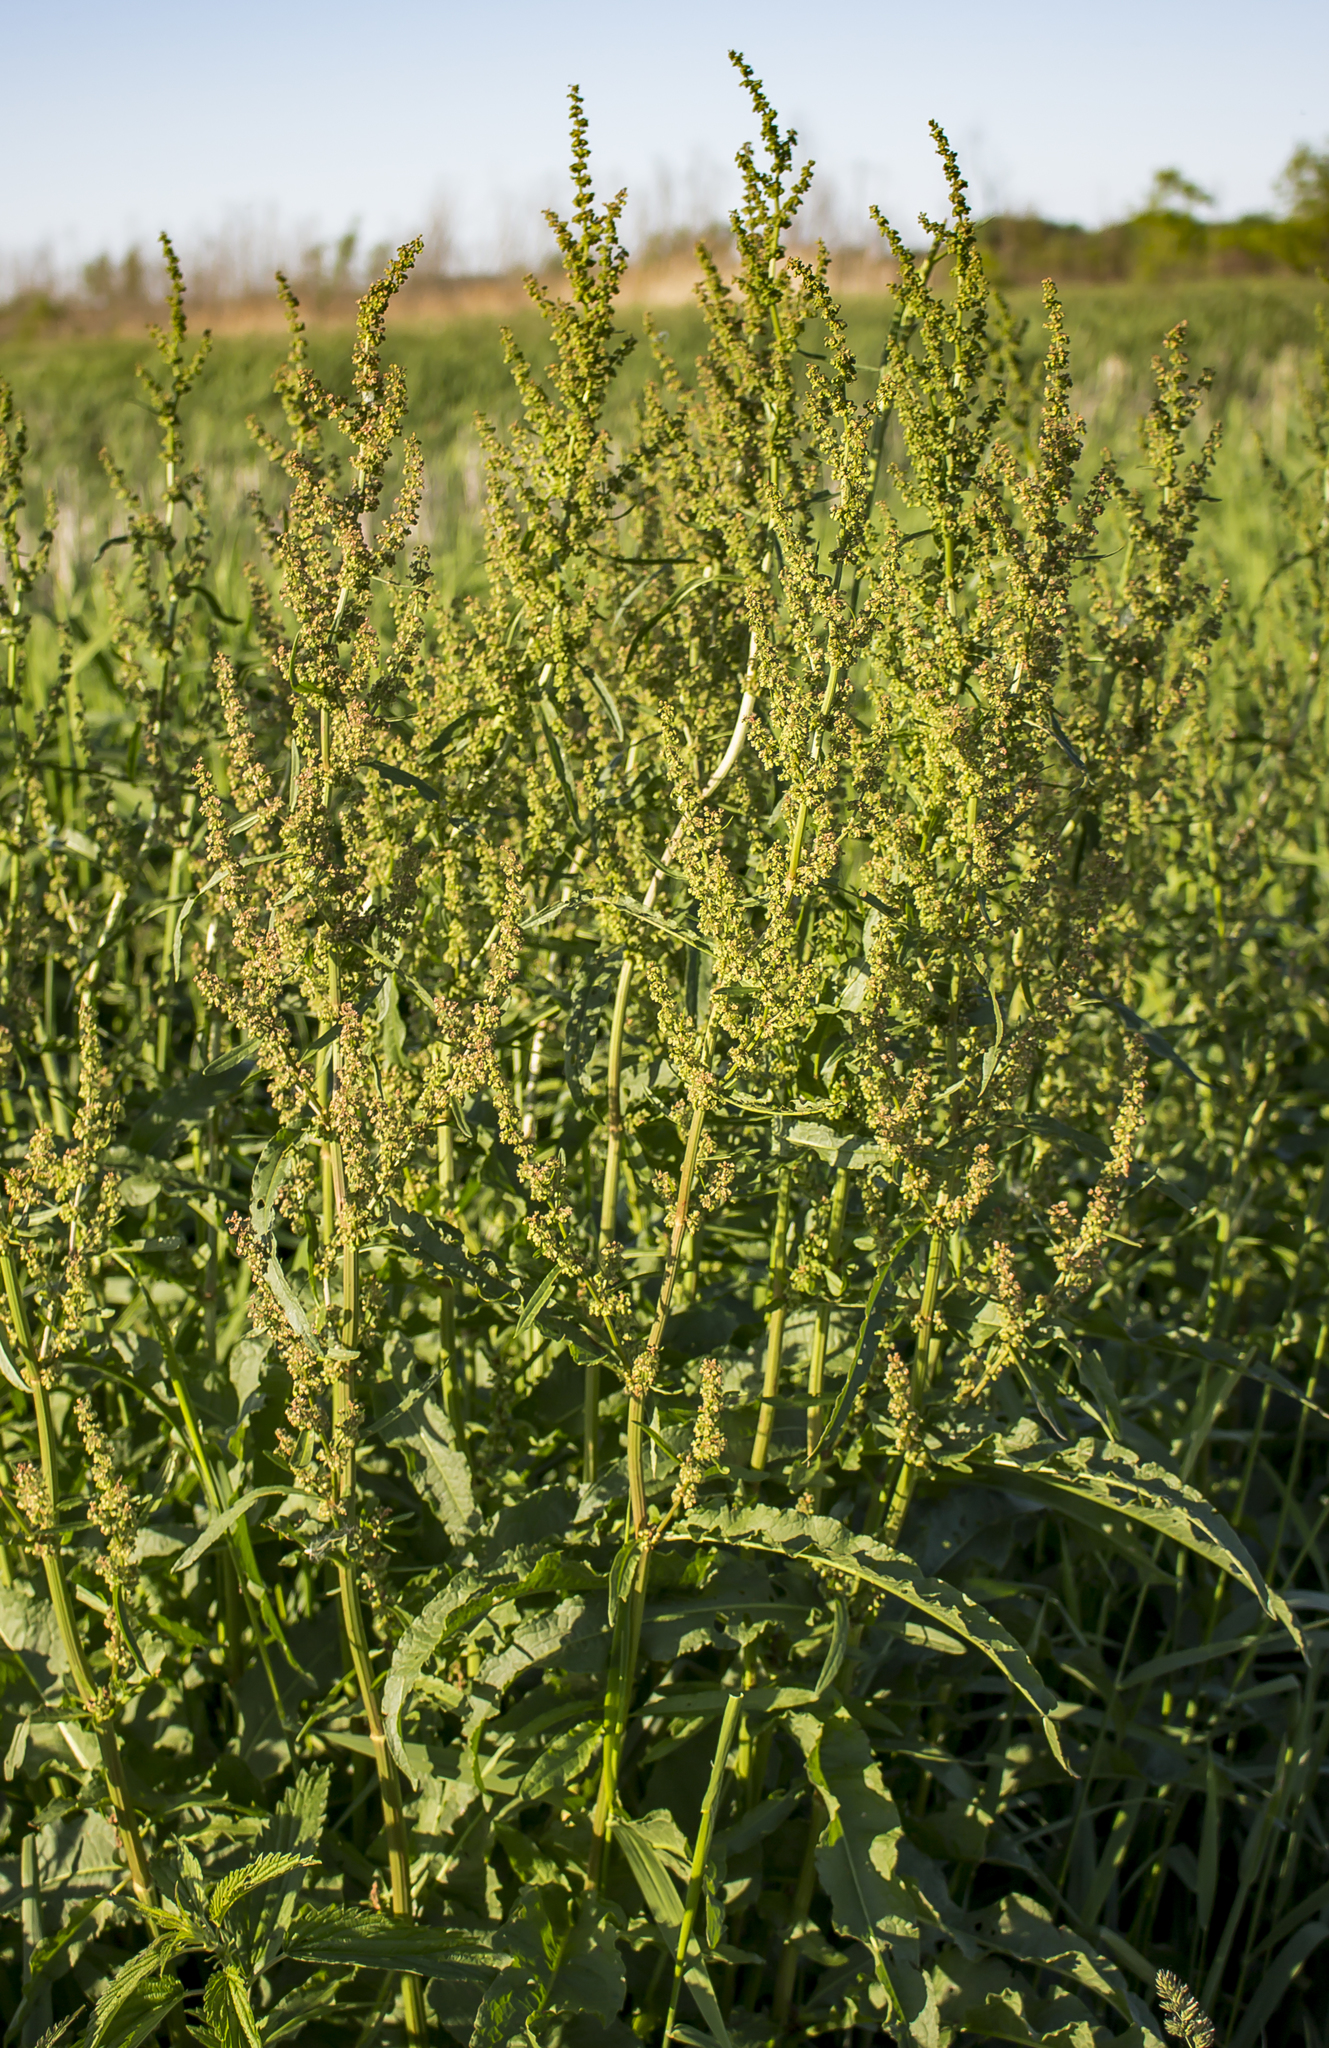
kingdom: Plantae
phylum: Tracheophyta
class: Magnoliopsida
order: Caryophyllales
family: Polygonaceae
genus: Rumex
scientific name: Rumex crispus
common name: Curled dock
